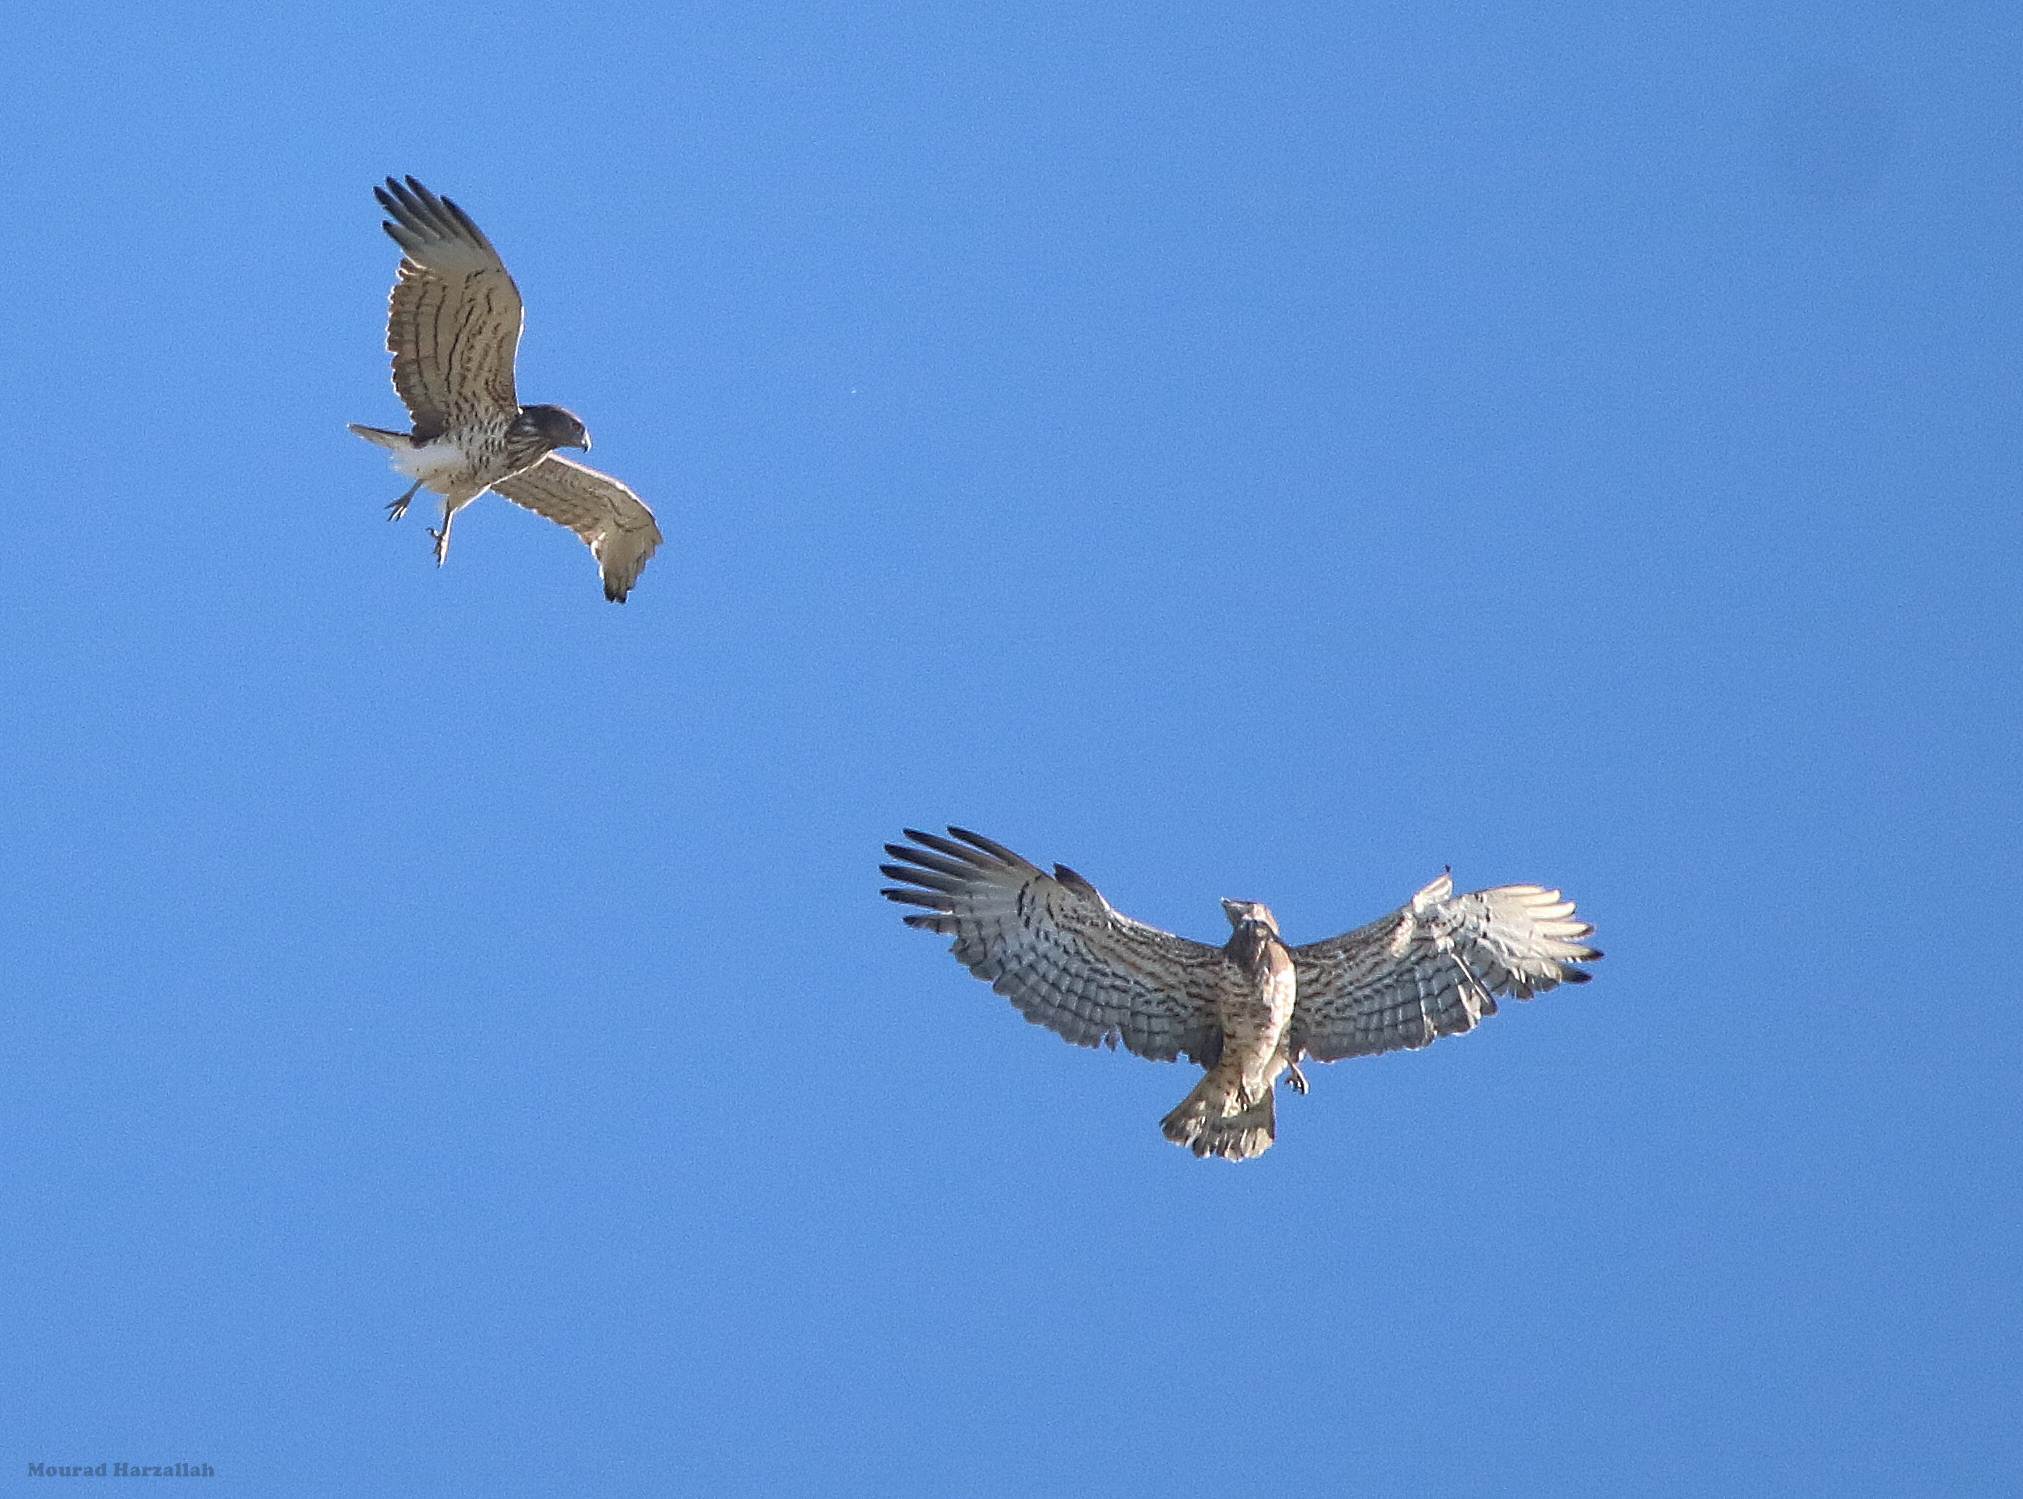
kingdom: Animalia
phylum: Chordata
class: Aves
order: Accipitriformes
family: Accipitridae
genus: Circaetus
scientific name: Circaetus gallicus
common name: Short-toed snake eagle
